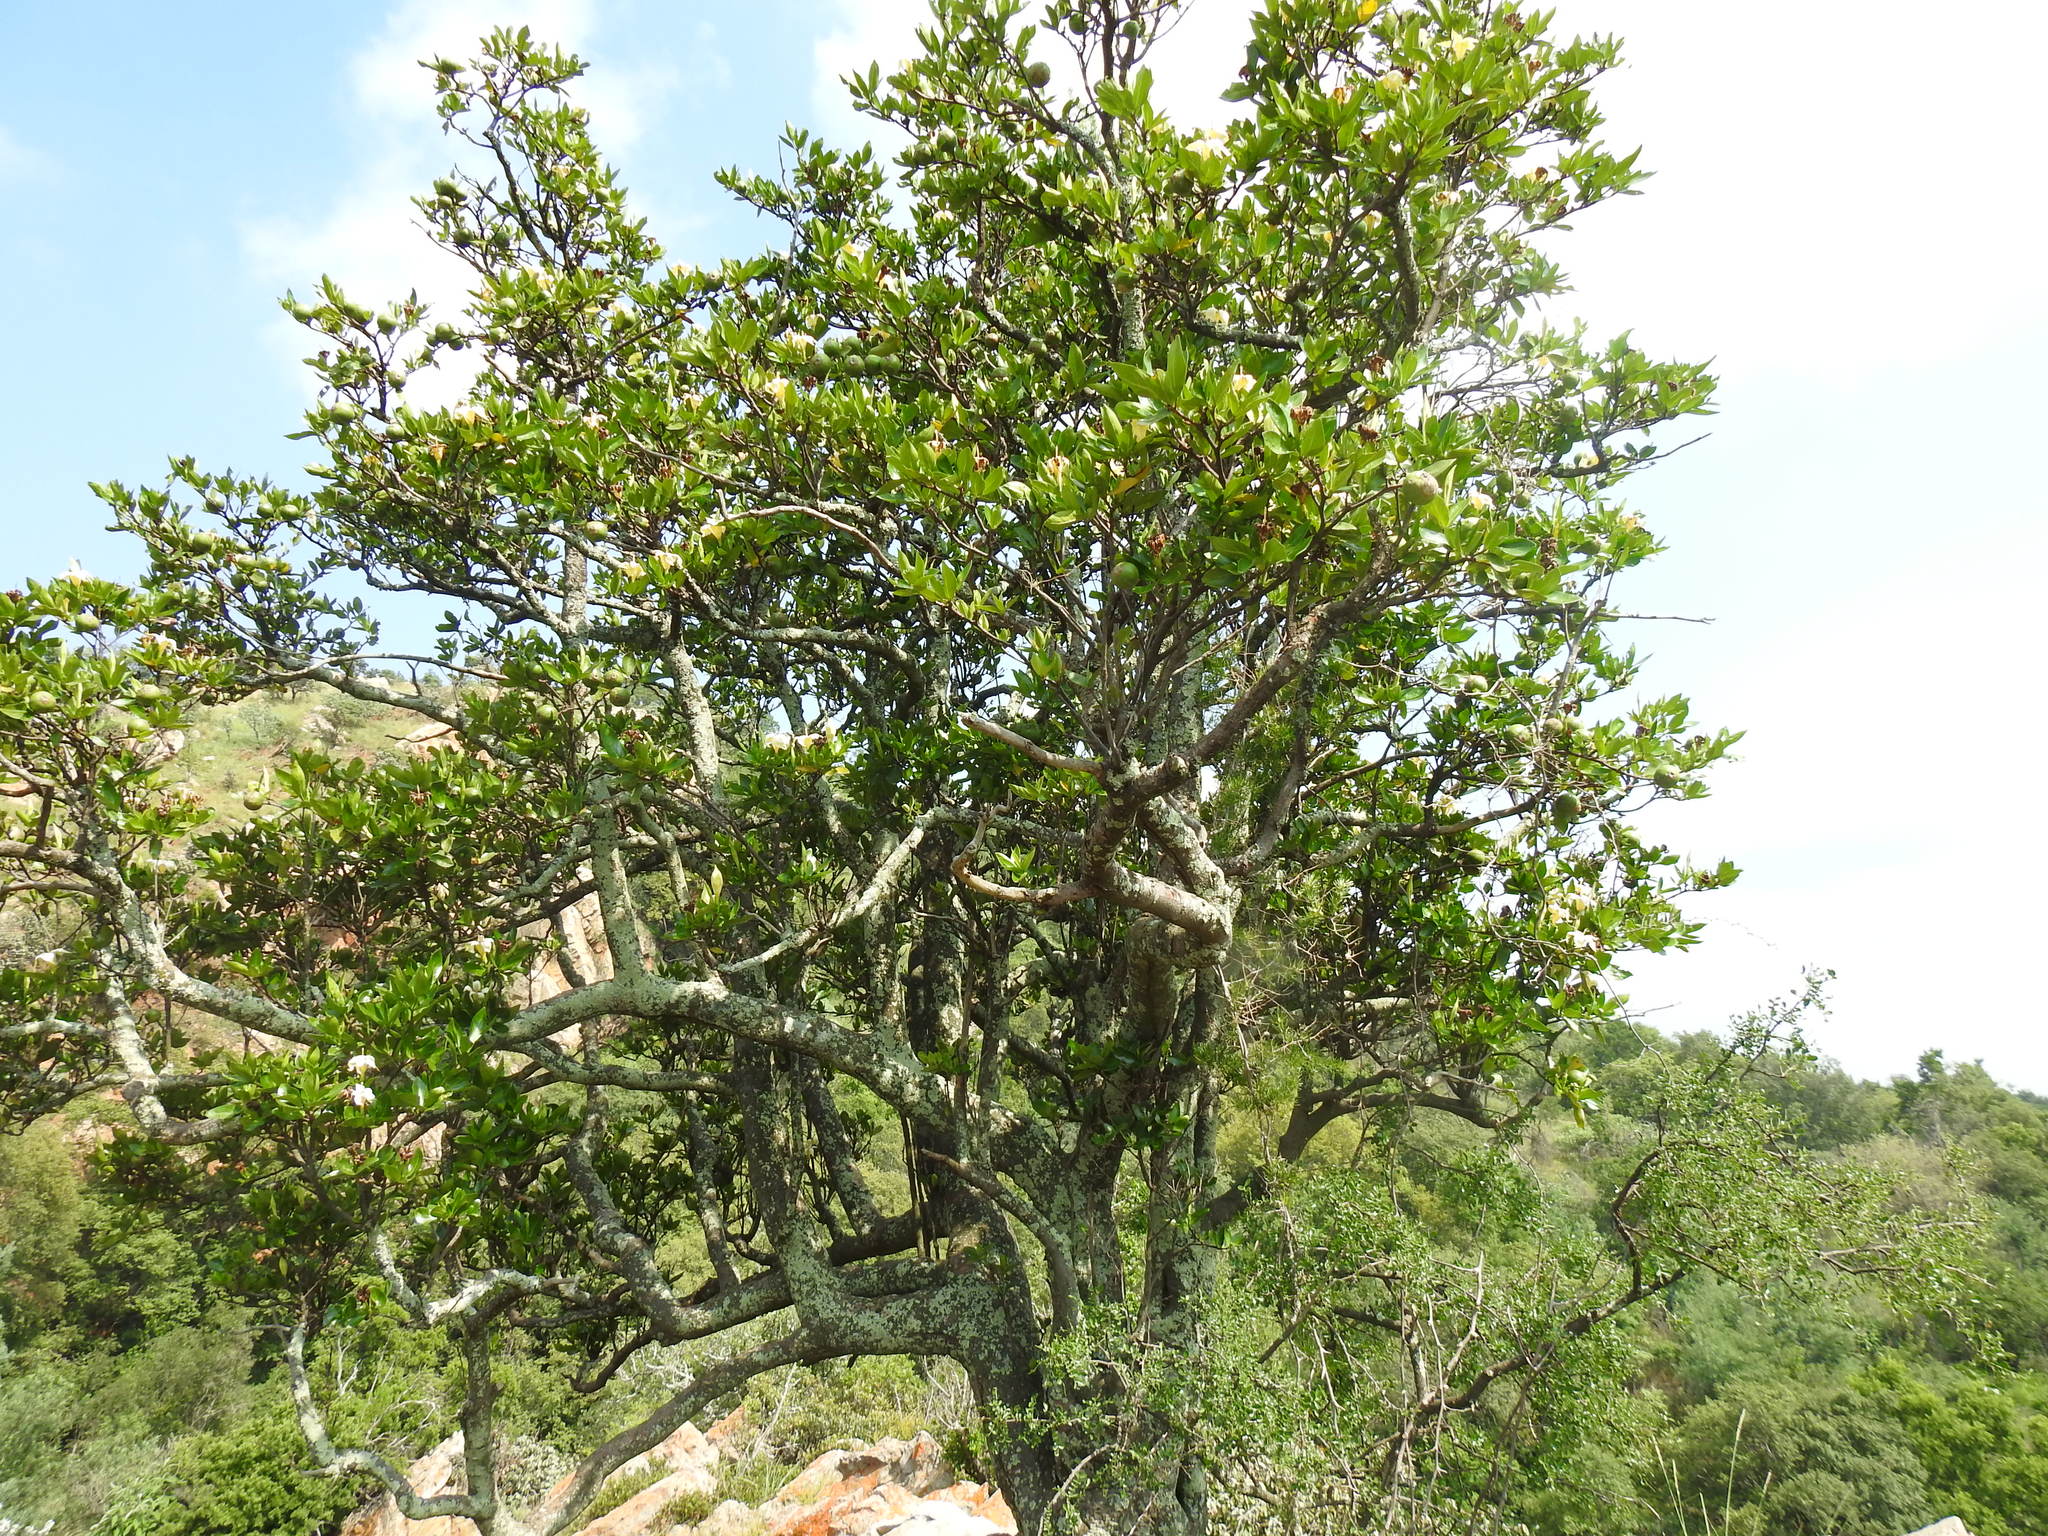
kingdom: Plantae
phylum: Tracheophyta
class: Magnoliopsida
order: Gentianales
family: Rubiaceae
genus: Rothmannia
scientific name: Rothmannia capensis
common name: Cape gardenia
